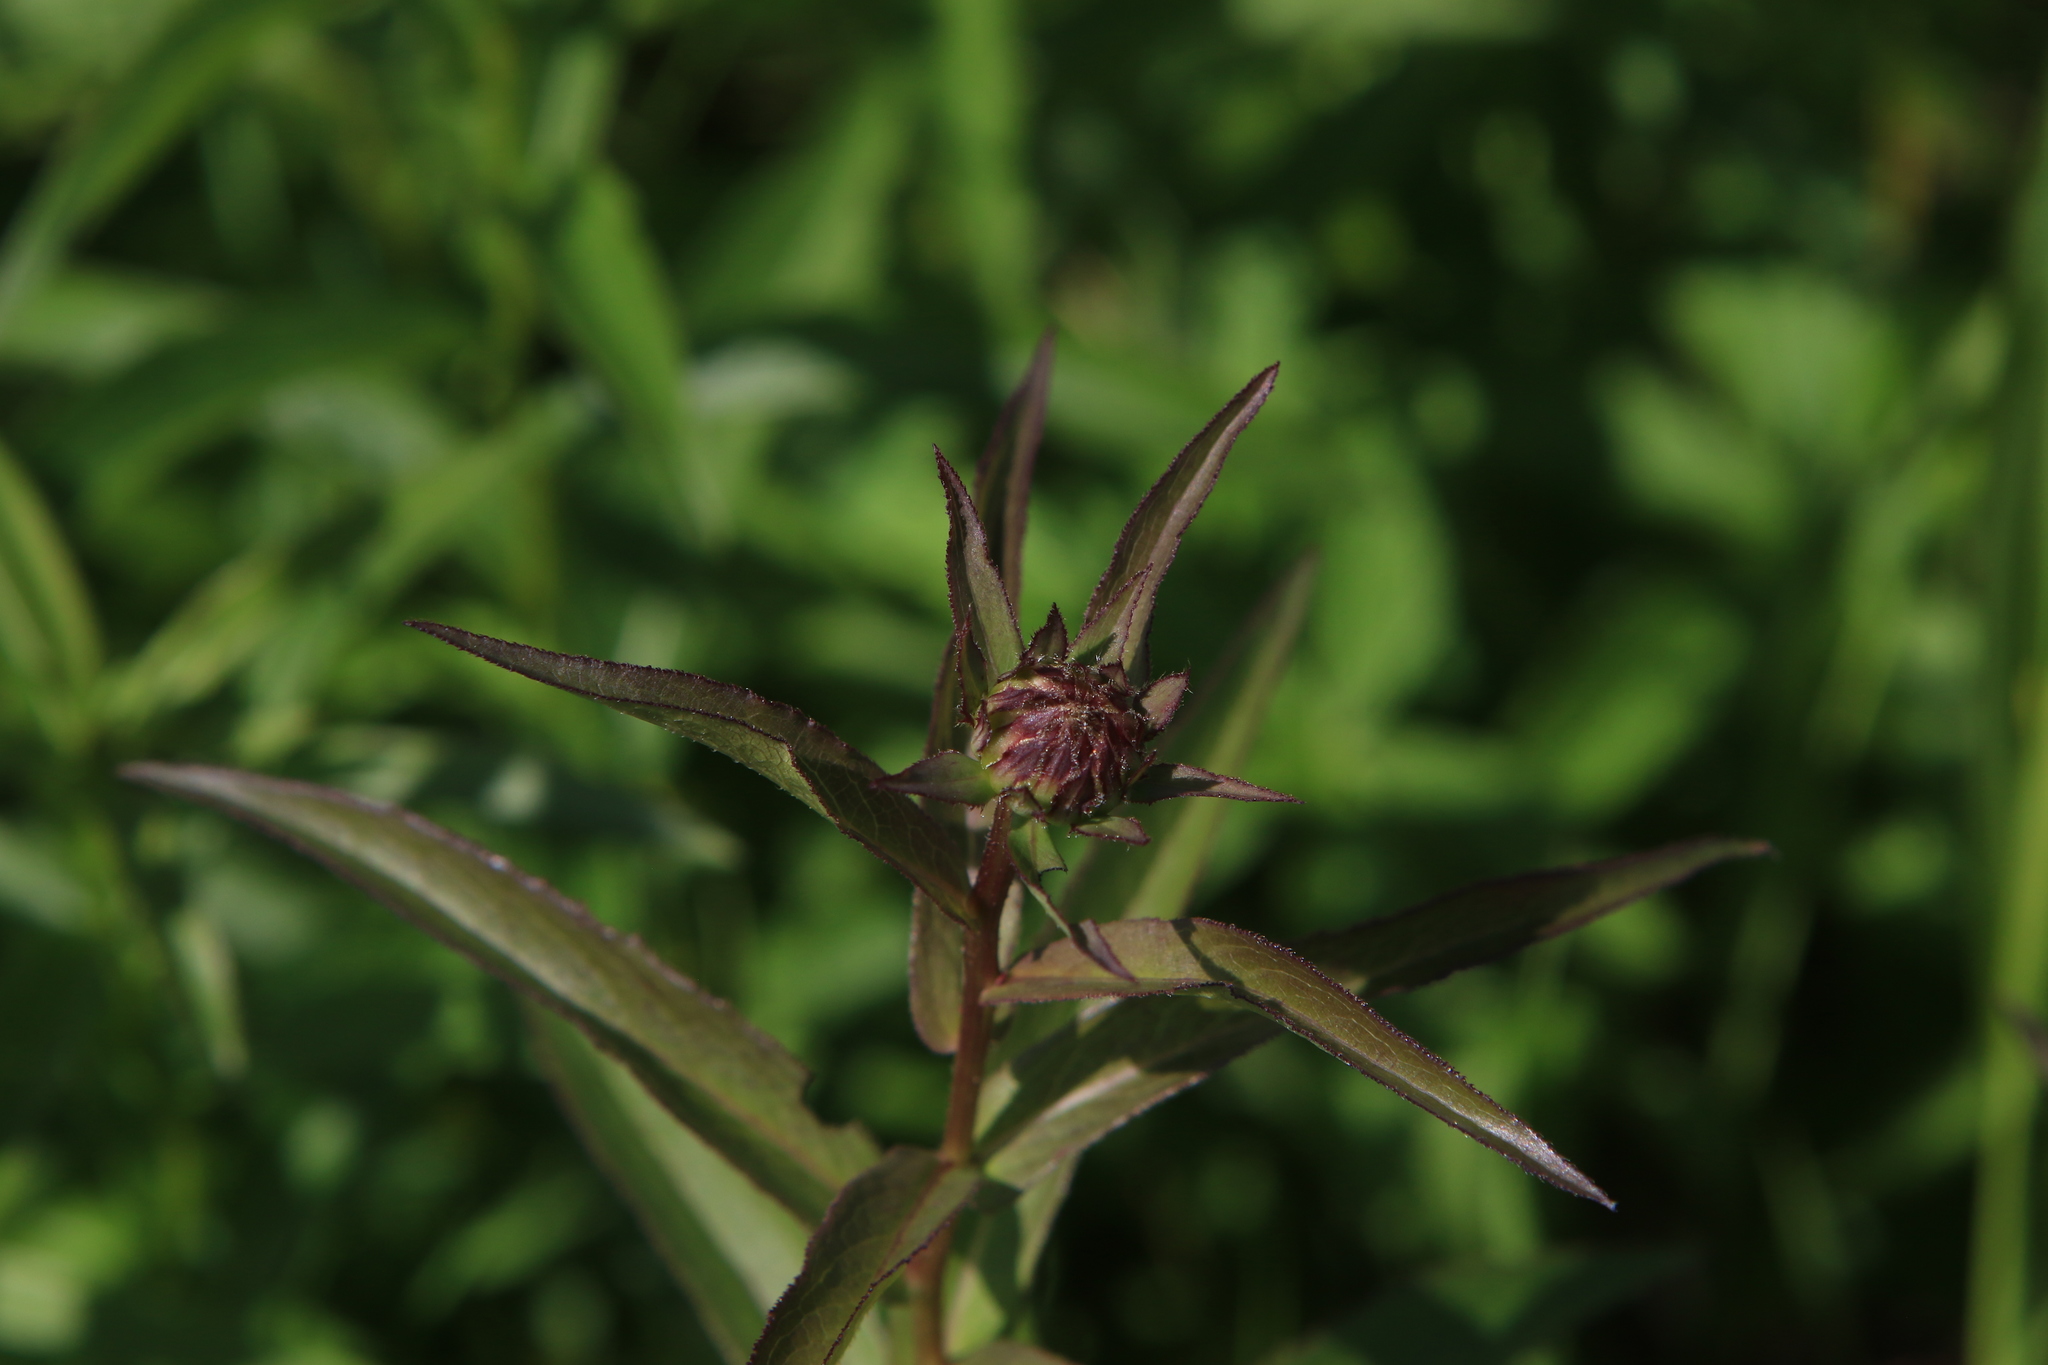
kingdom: Plantae
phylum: Tracheophyta
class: Magnoliopsida
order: Asterales
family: Asteraceae
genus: Pentanema
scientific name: Pentanema salicinum
